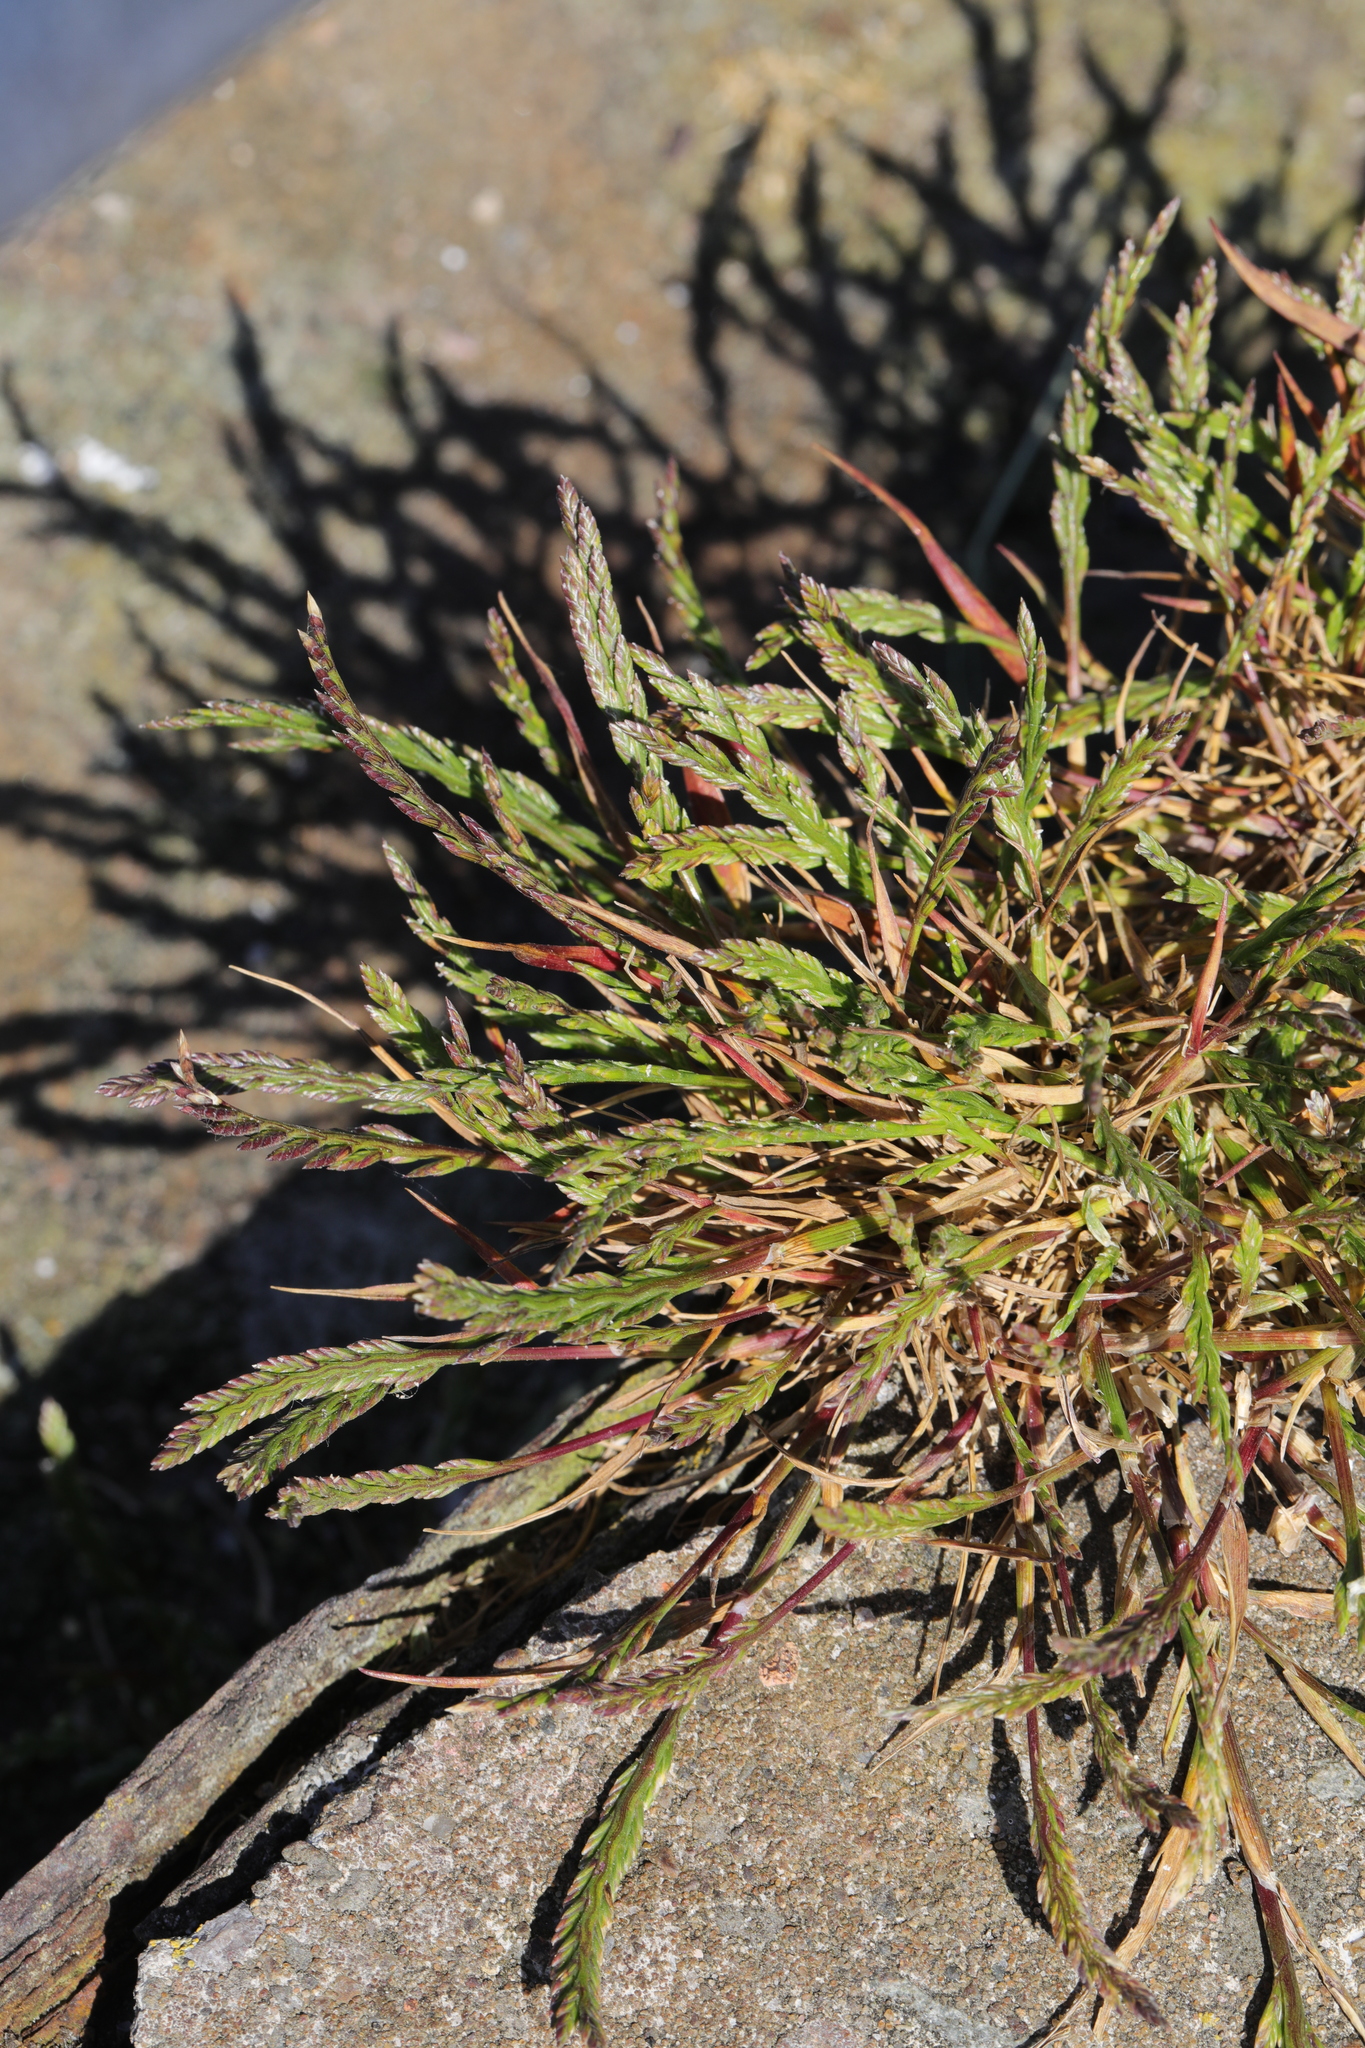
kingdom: Plantae
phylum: Tracheophyta
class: Magnoliopsida
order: Lamiales
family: Plantaginaceae
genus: Plantago
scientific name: Plantago coronopus
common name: Buck's-horn plantain
